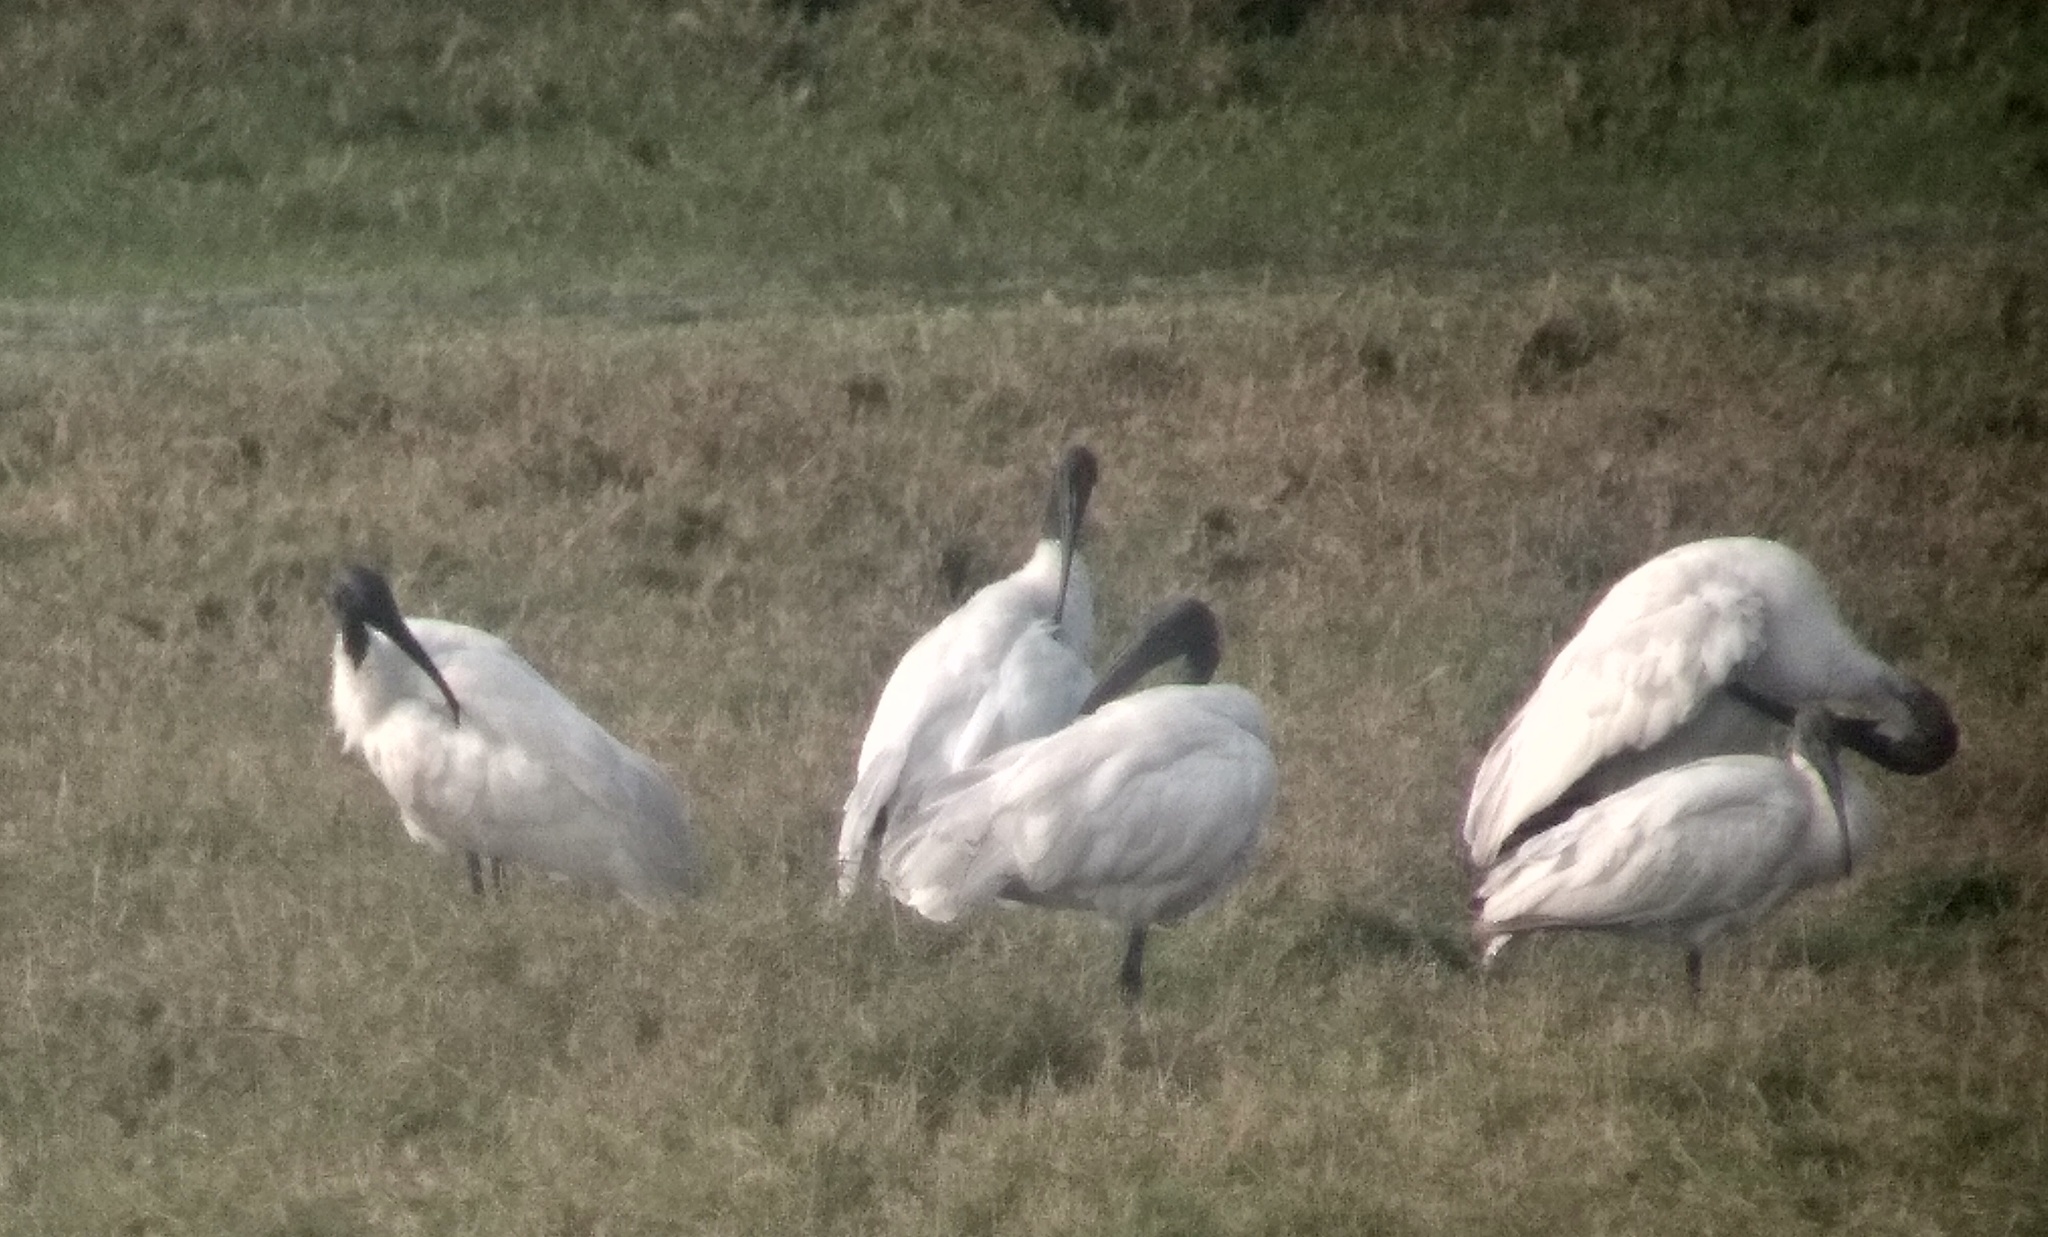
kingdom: Animalia
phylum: Chordata
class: Aves
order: Pelecaniformes
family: Threskiornithidae
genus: Threskiornis
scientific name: Threskiornis melanocephalus
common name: Black-headed ibis
